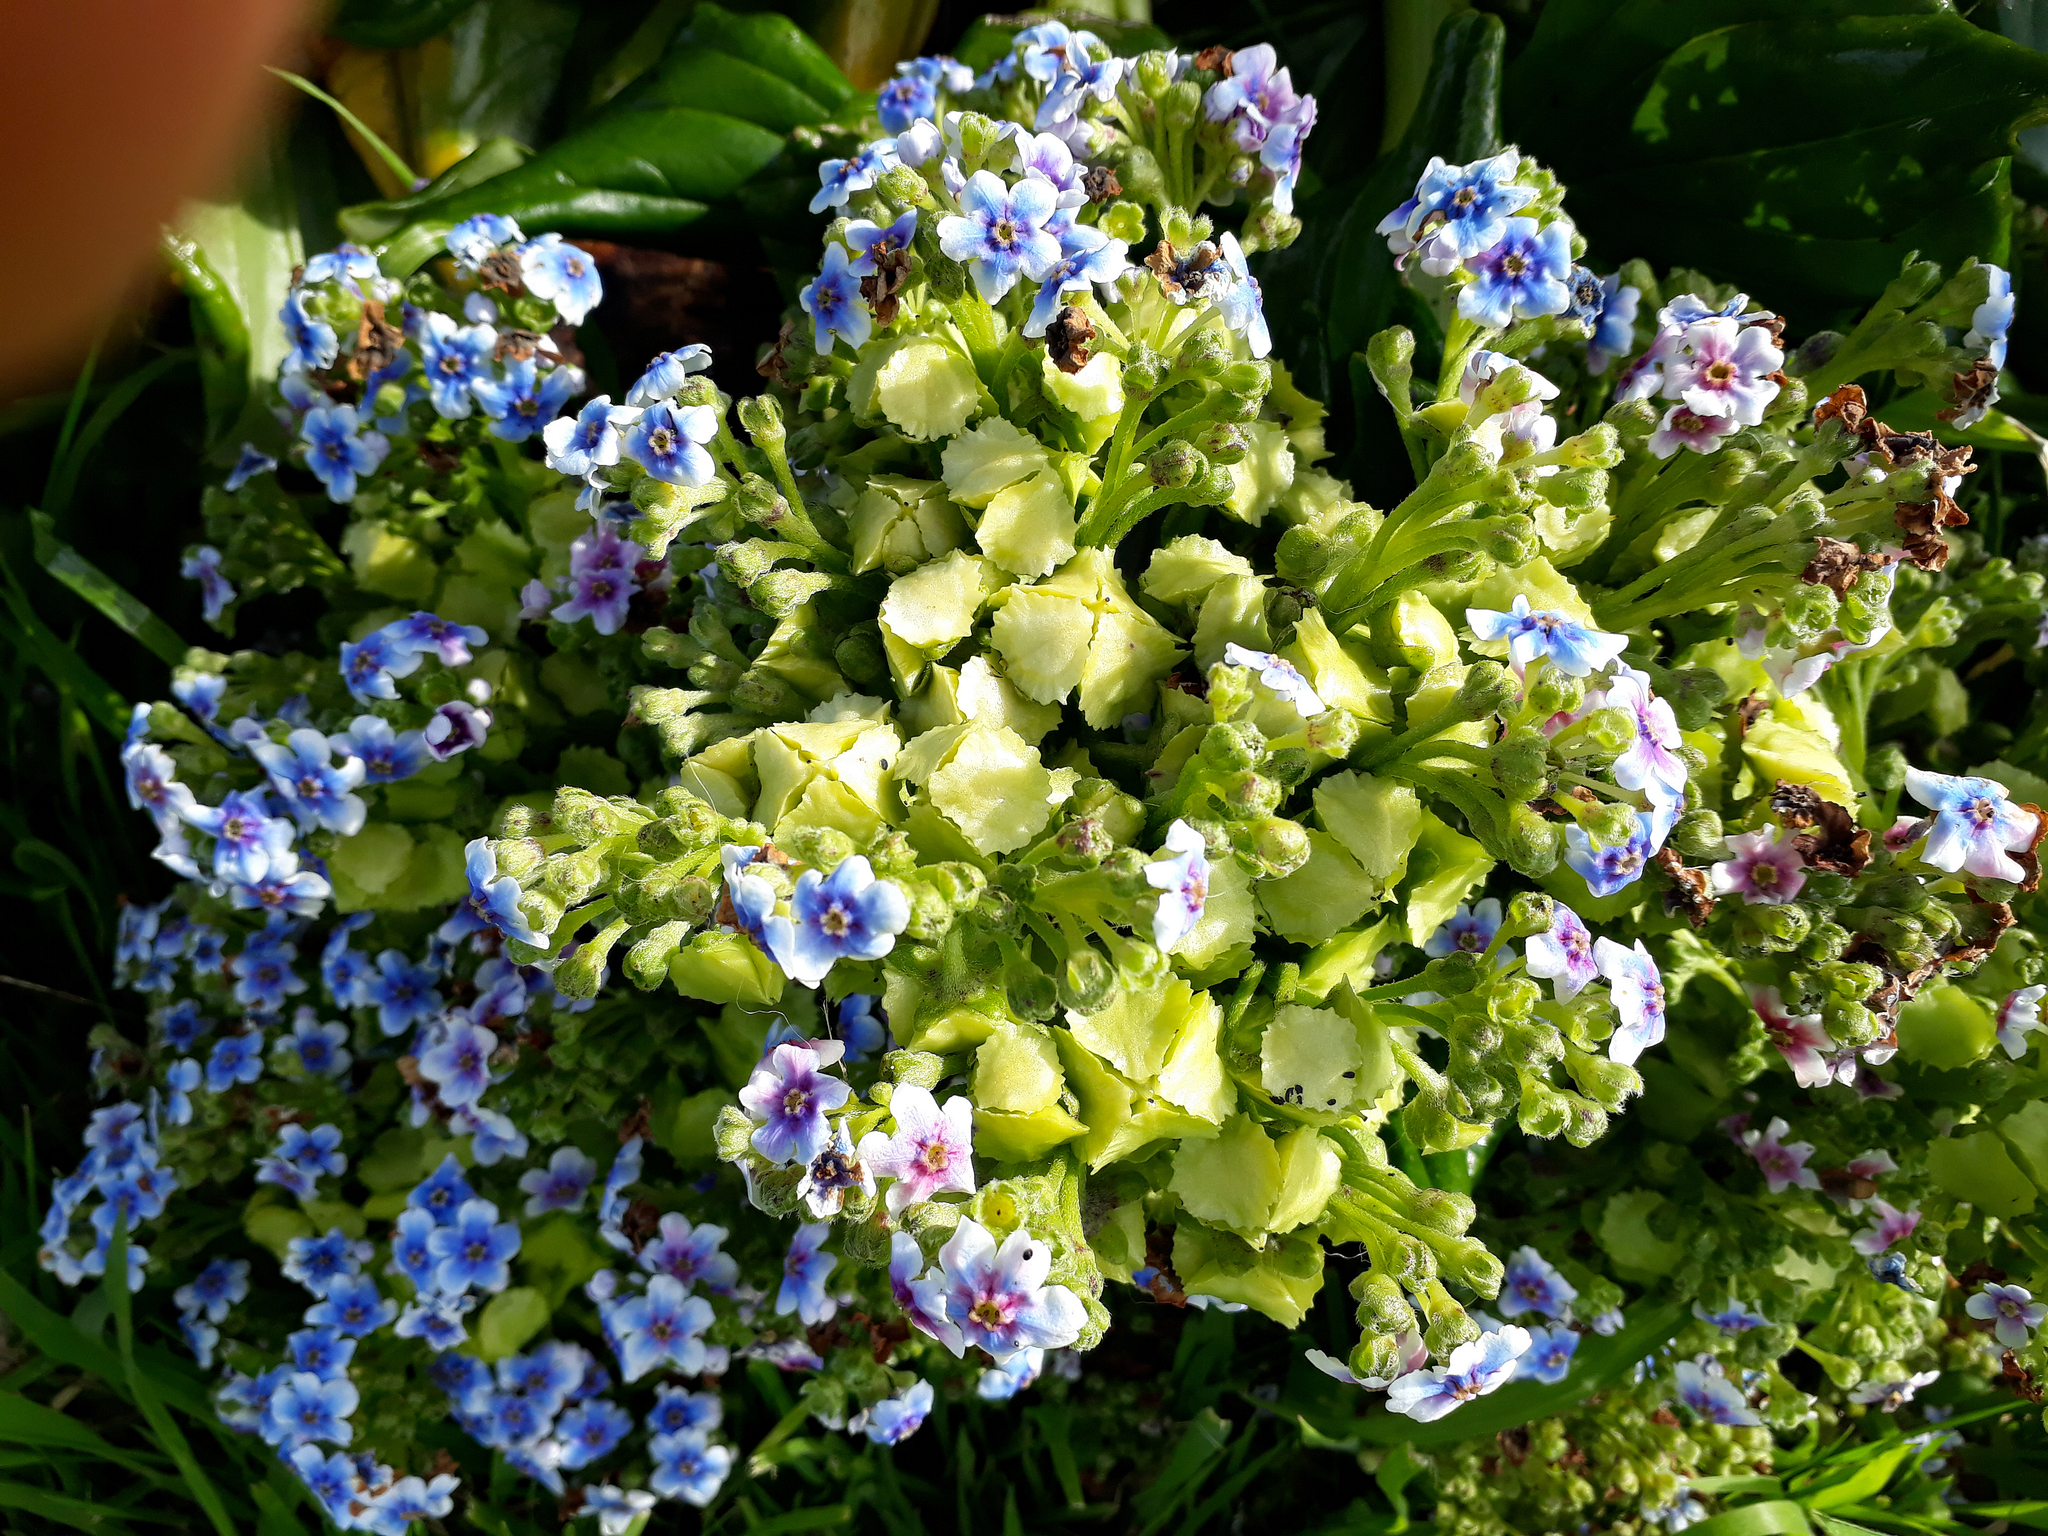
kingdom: Plantae
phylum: Tracheophyta
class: Magnoliopsida
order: Boraginales
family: Boraginaceae
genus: Myosotidium
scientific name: Myosotidium hortensia
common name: Giant forget-me-not
